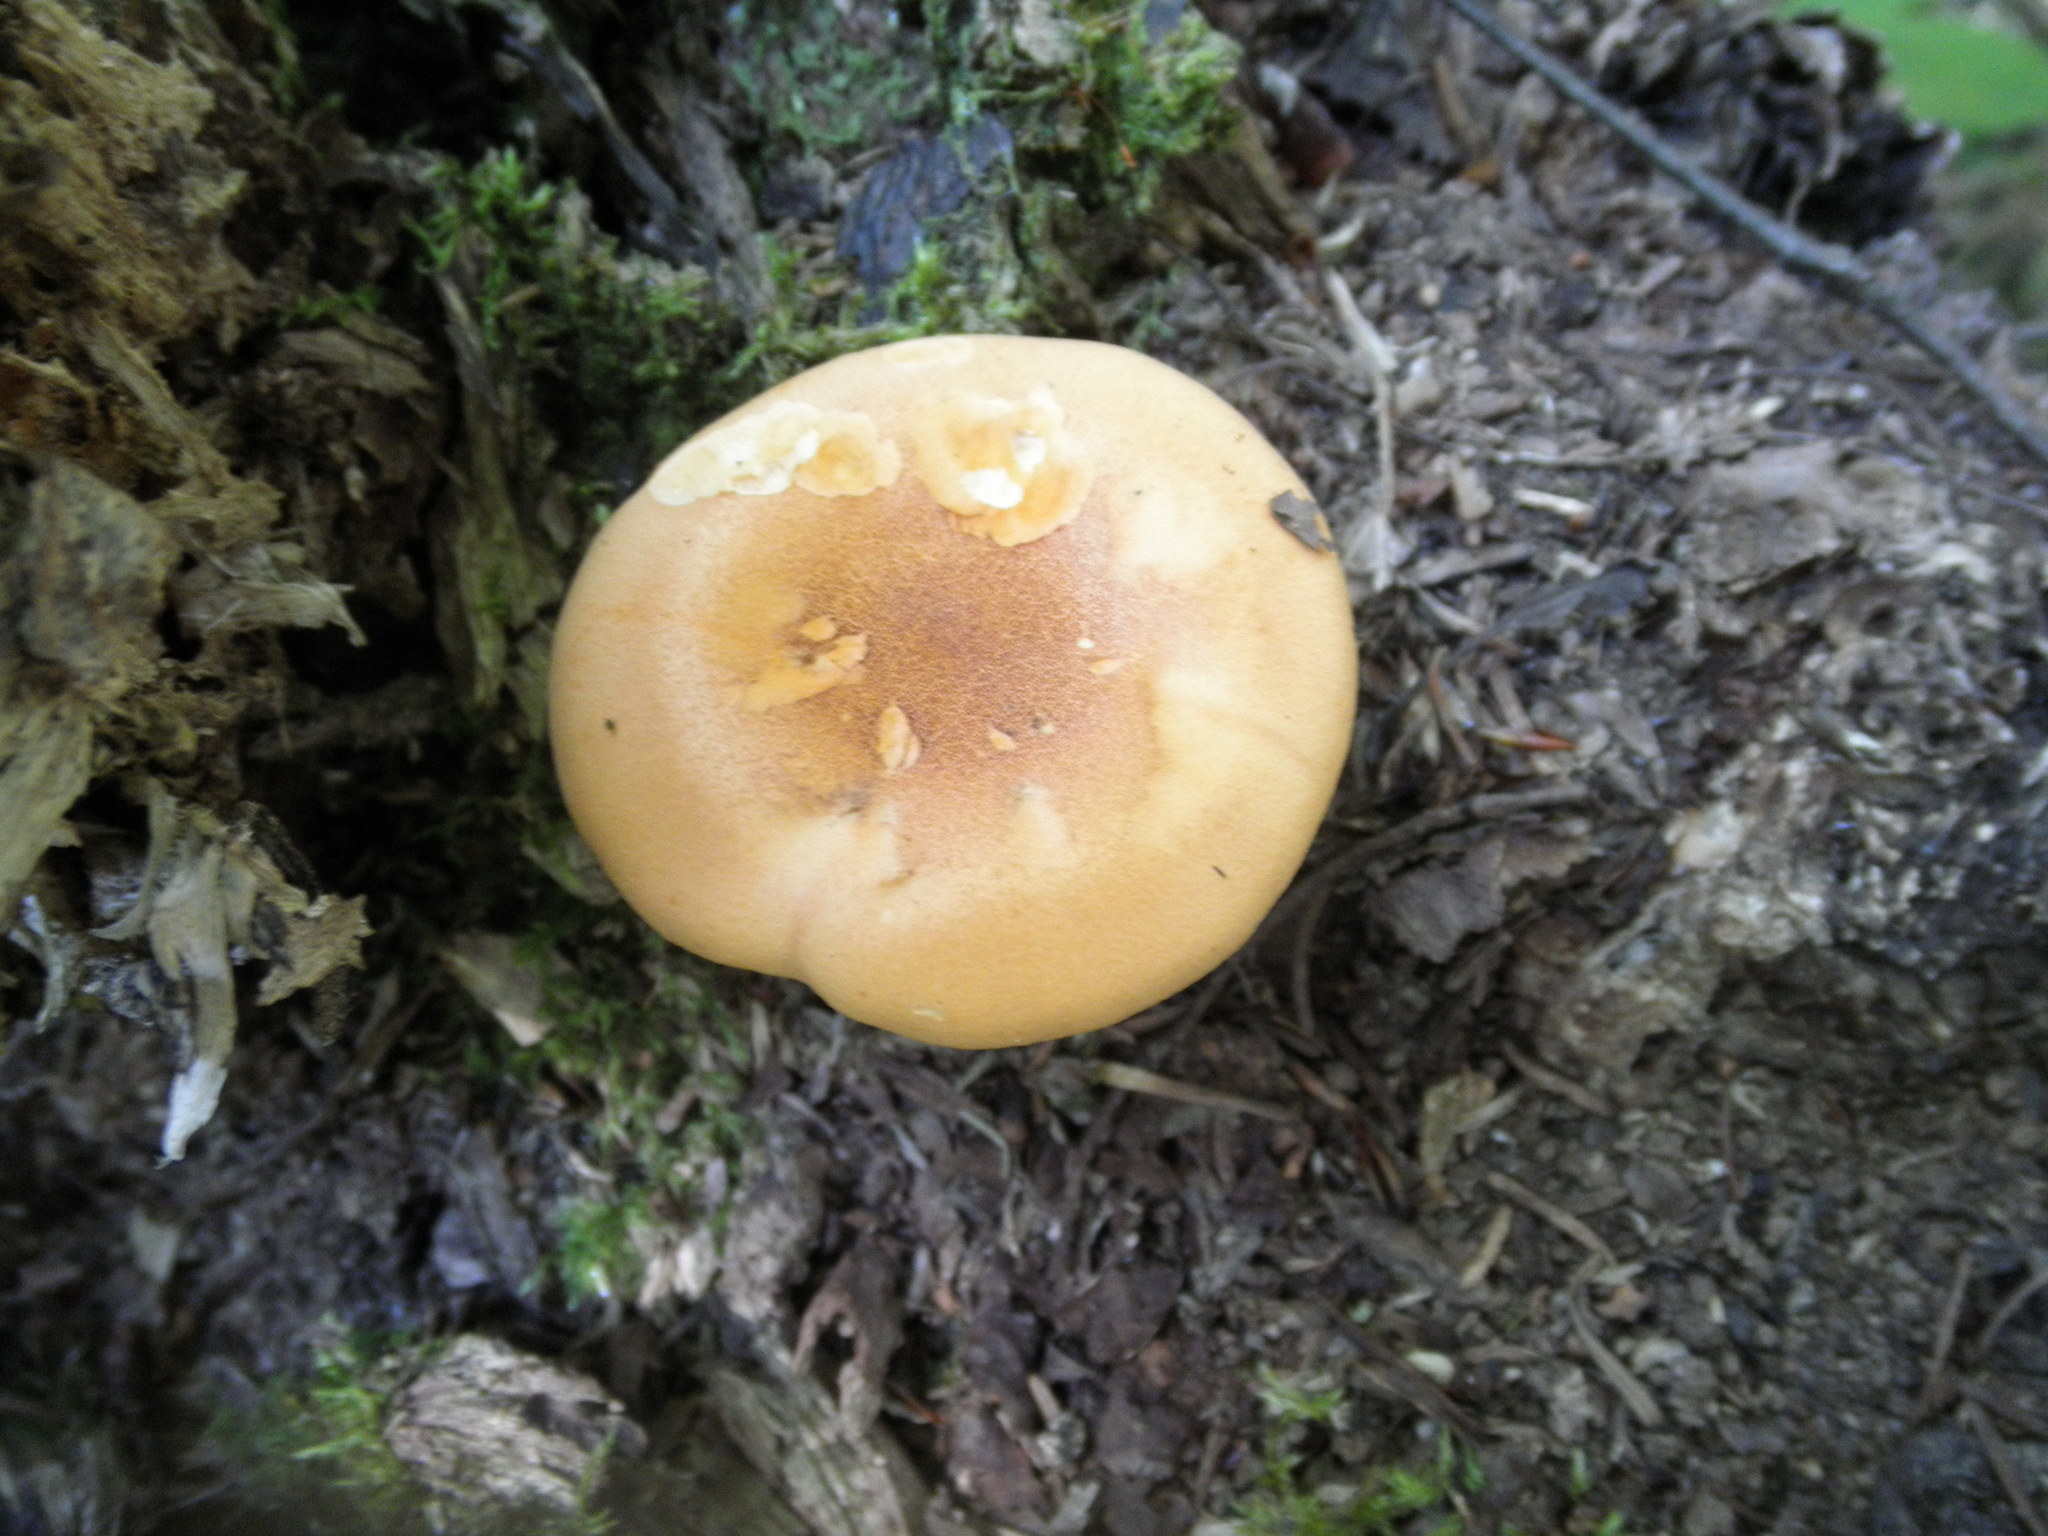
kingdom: Fungi
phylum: Basidiomycota
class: Agaricomycetes
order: Boletales
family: Hygrophoropsidaceae
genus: Hygrophoropsis
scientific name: Hygrophoropsis aurantiaca
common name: False chanterelle
